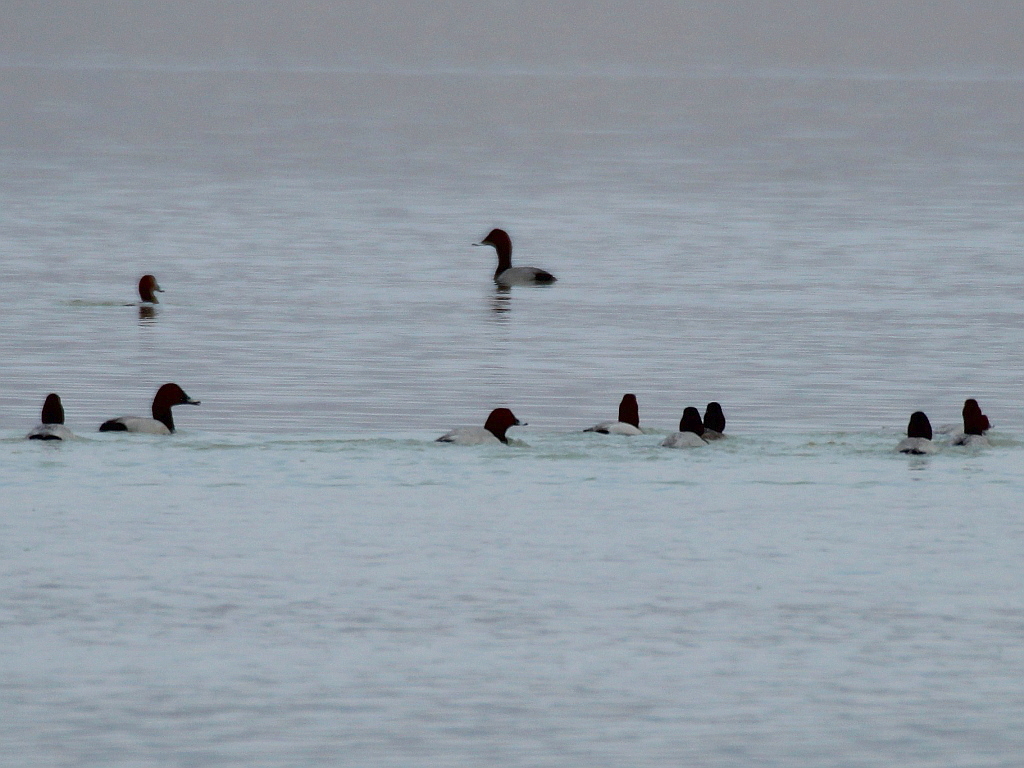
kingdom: Animalia
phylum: Chordata
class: Aves
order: Anseriformes
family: Anatidae
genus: Aythya
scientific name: Aythya ferina
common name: Common pochard
